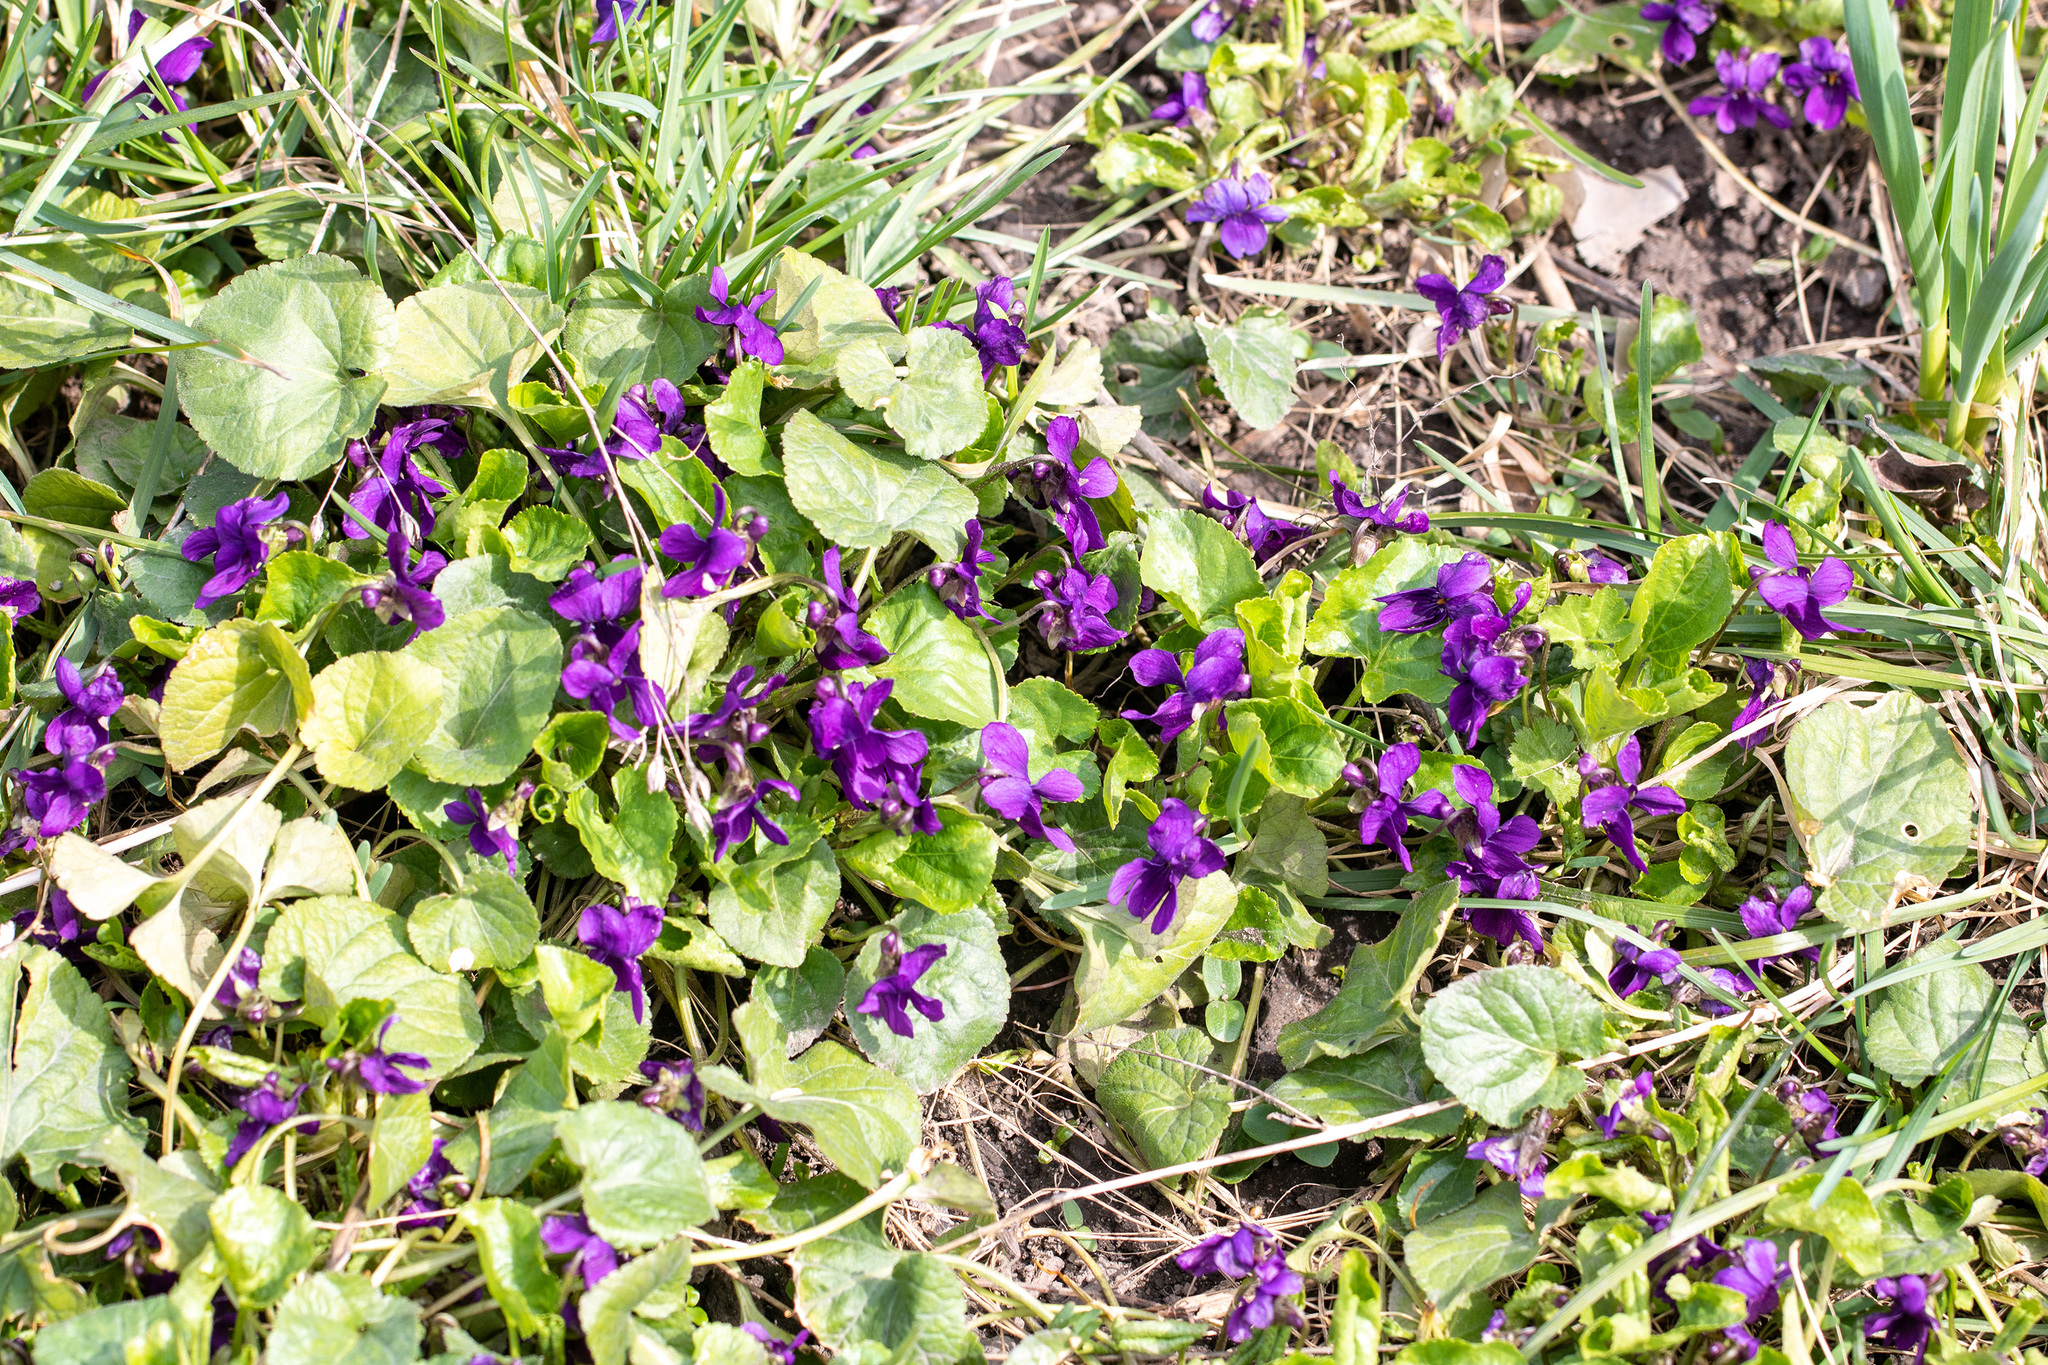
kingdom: Plantae
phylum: Tracheophyta
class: Magnoliopsida
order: Malpighiales
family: Violaceae
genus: Viola
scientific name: Viola odorata
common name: Sweet violet
